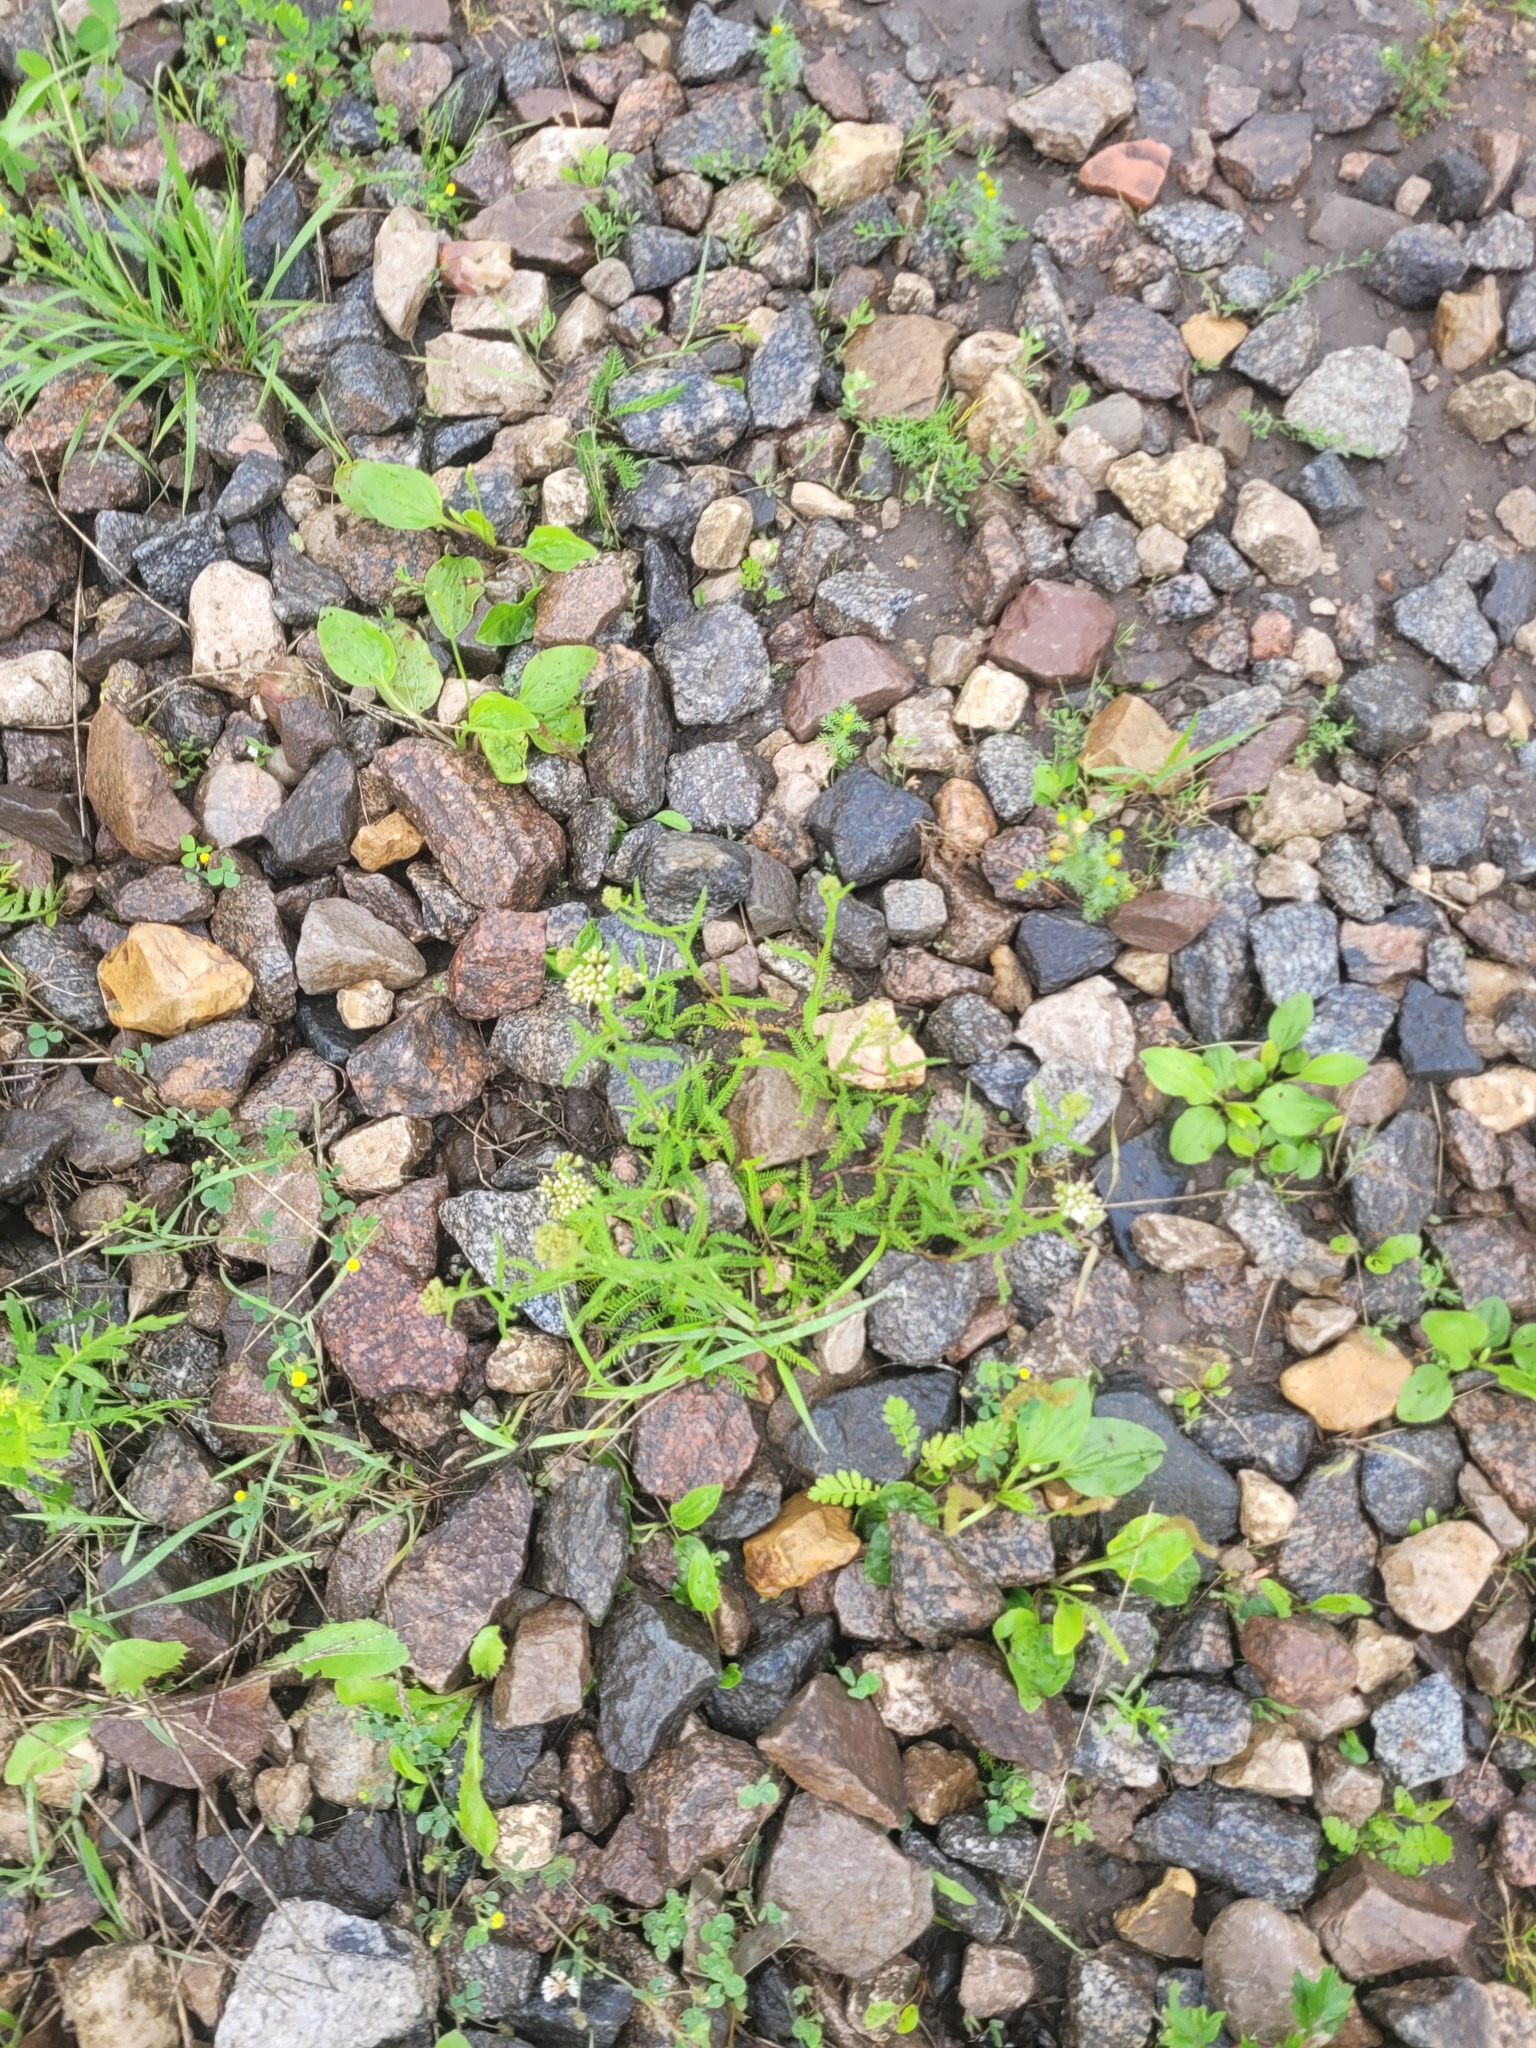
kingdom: Plantae
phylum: Tracheophyta
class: Magnoliopsida
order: Asterales
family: Asteraceae
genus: Achillea
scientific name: Achillea millefolium
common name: Yarrow
